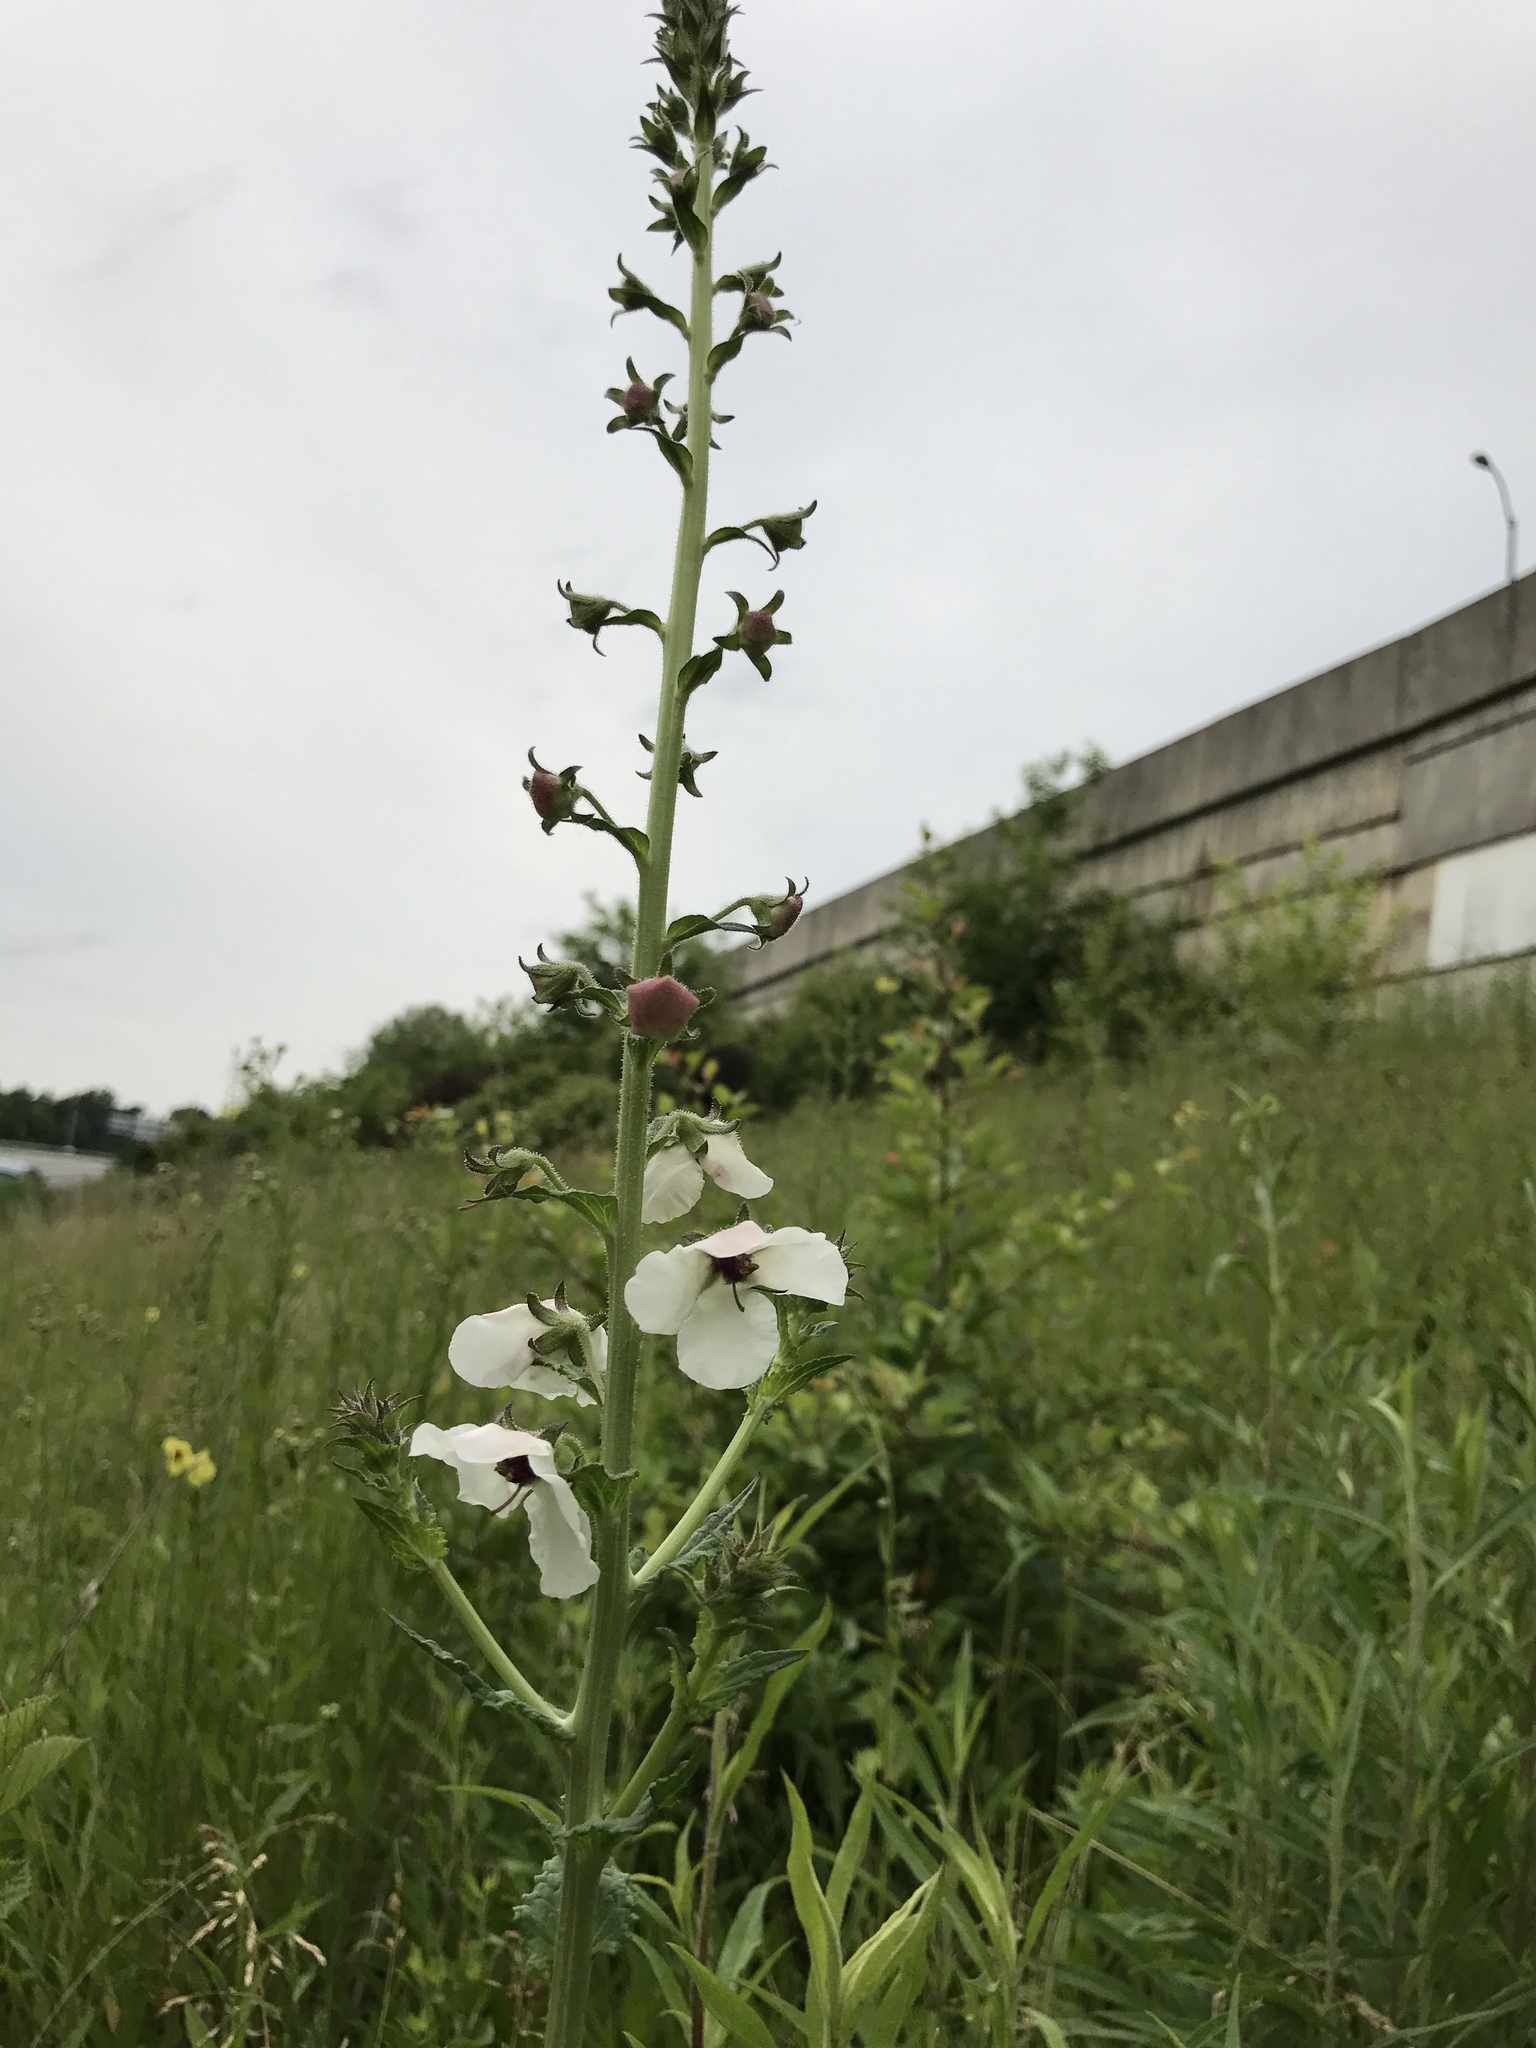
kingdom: Plantae
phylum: Tracheophyta
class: Magnoliopsida
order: Lamiales
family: Scrophulariaceae
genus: Verbascum
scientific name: Verbascum blattaria
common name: Moth mullein
